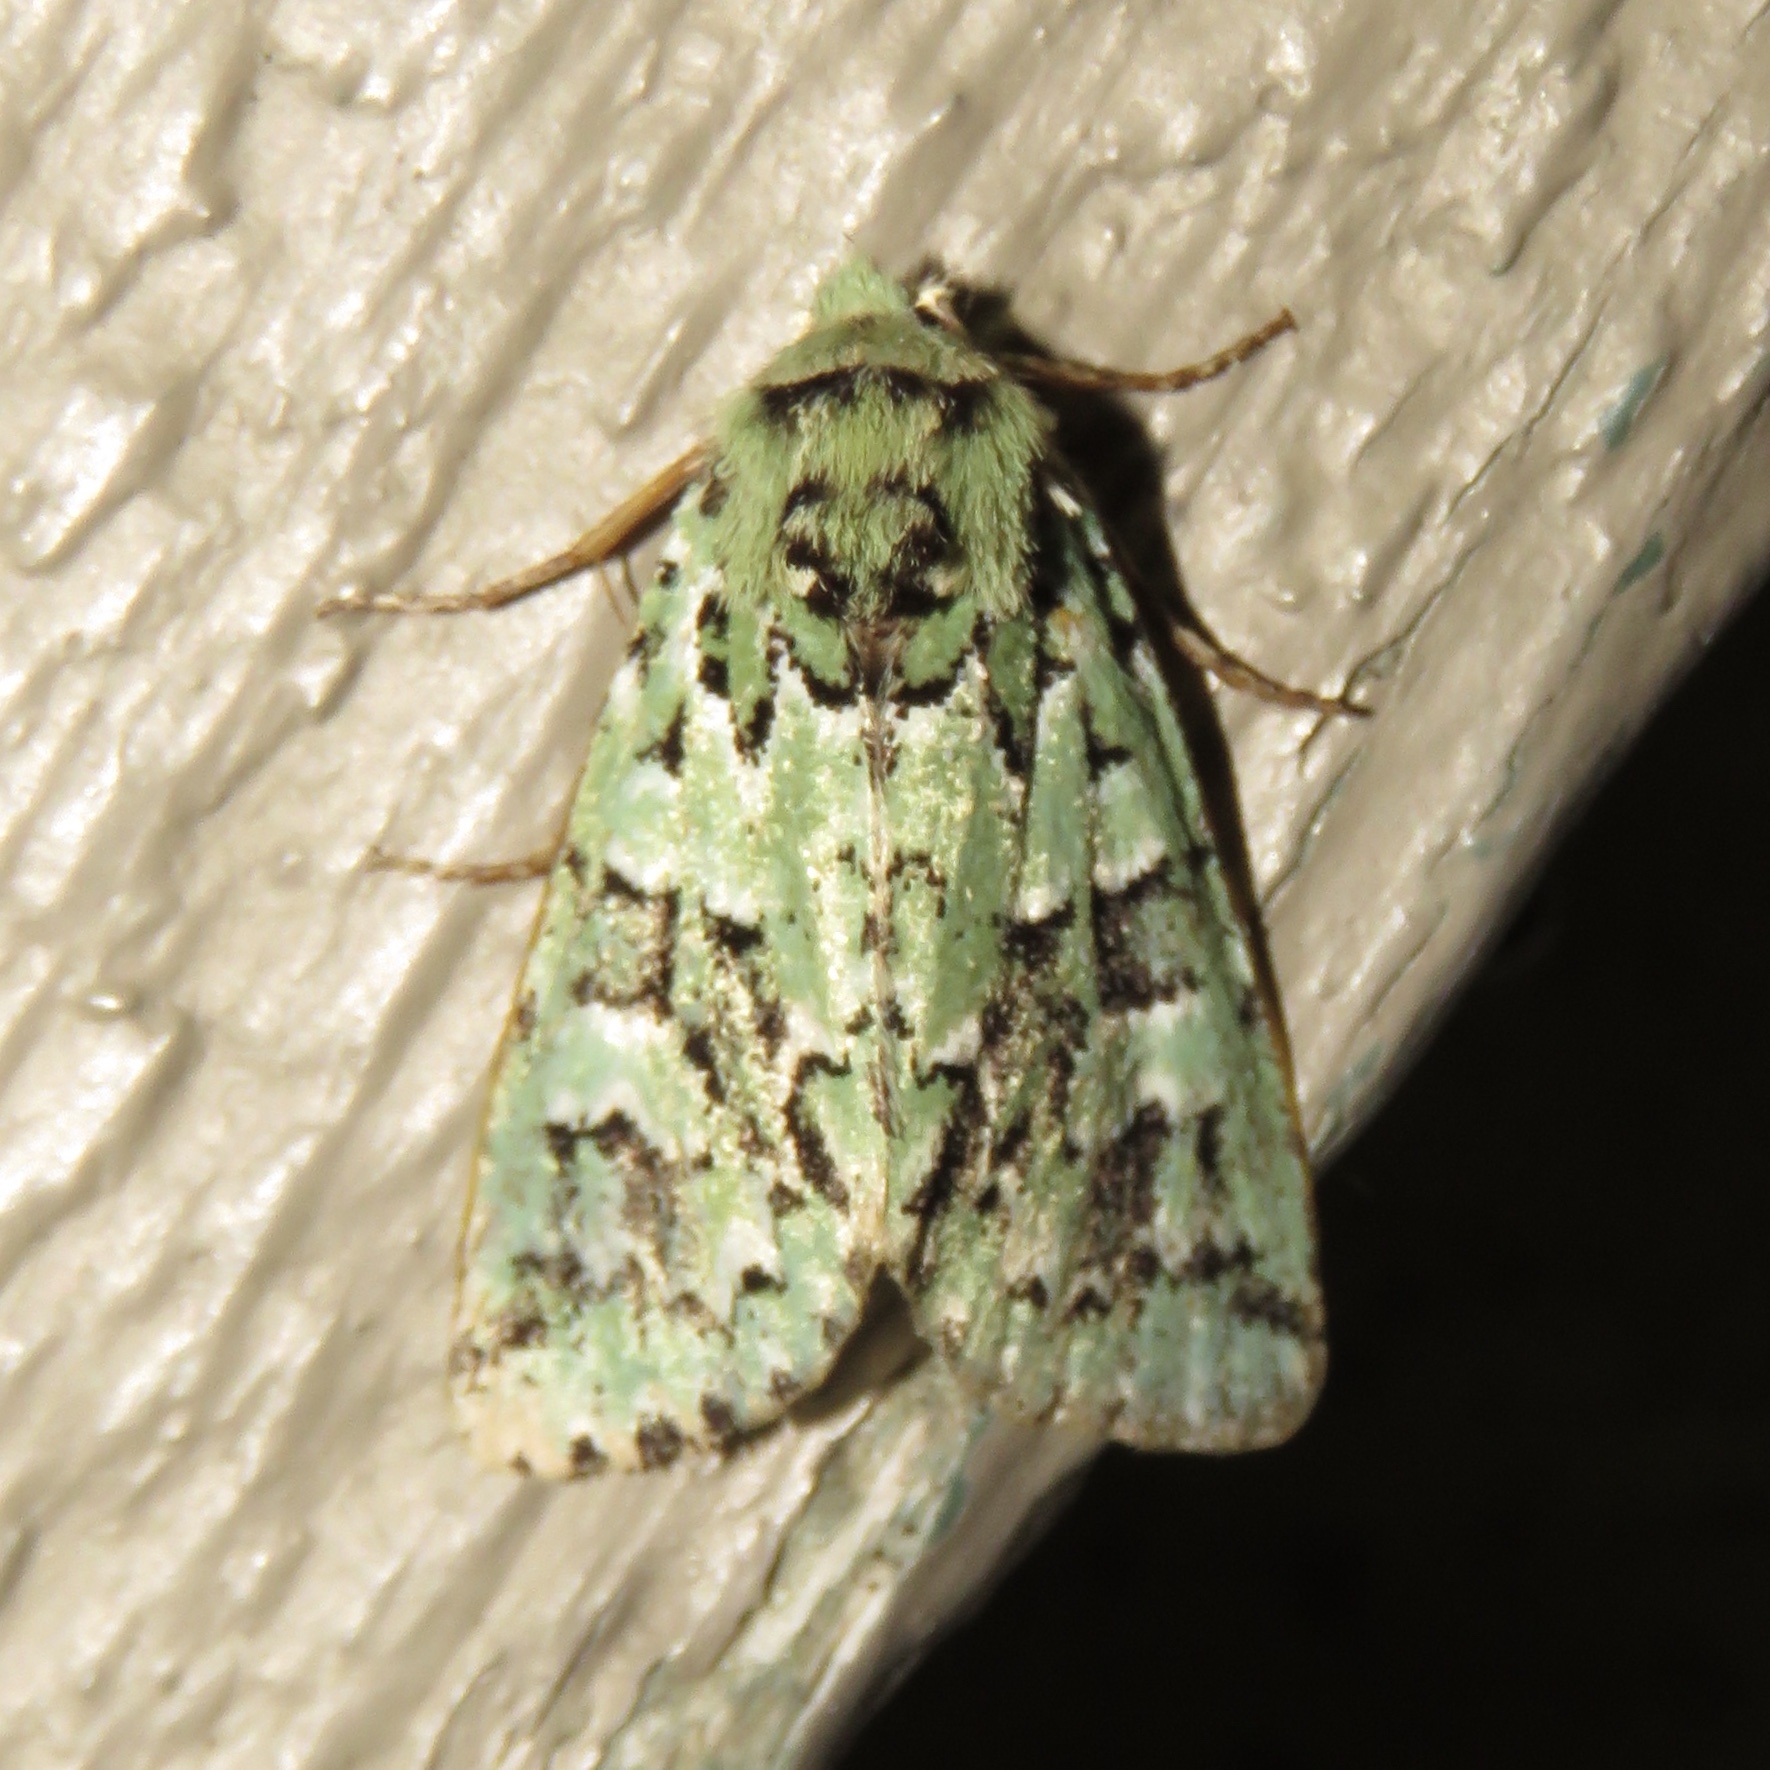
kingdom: Animalia
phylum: Arthropoda
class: Insecta
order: Lepidoptera
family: Noctuidae
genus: Feralia
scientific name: Feralia comstocki
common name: Comstock's sallow
